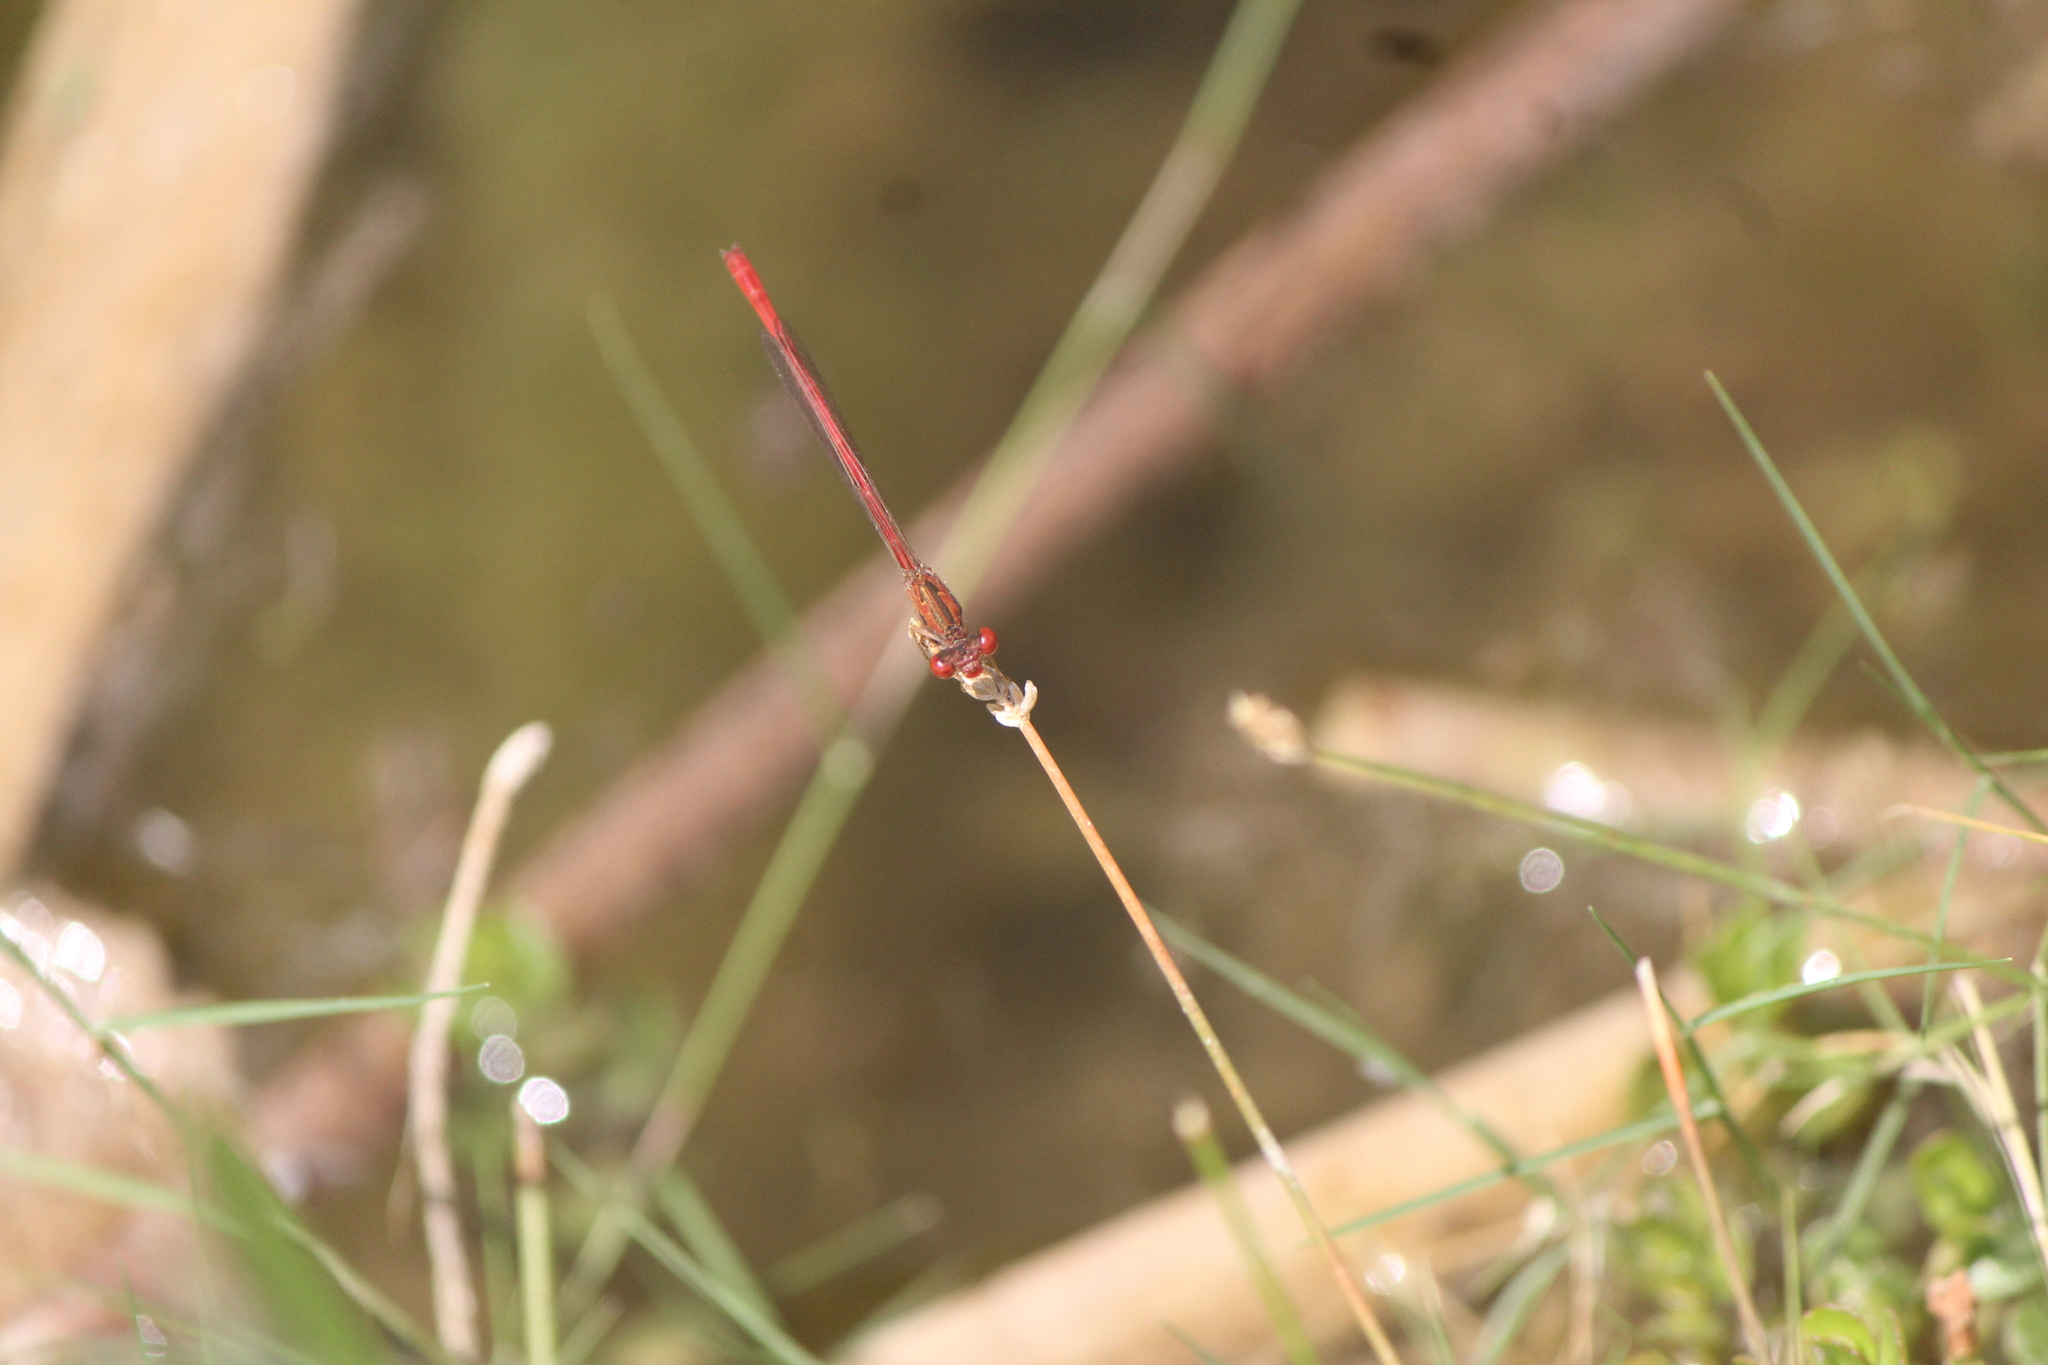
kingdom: Animalia
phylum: Arthropoda
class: Insecta
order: Odonata
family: Coenagrionidae
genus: Telebasis
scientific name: Telebasis salva
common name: Desert firetail
